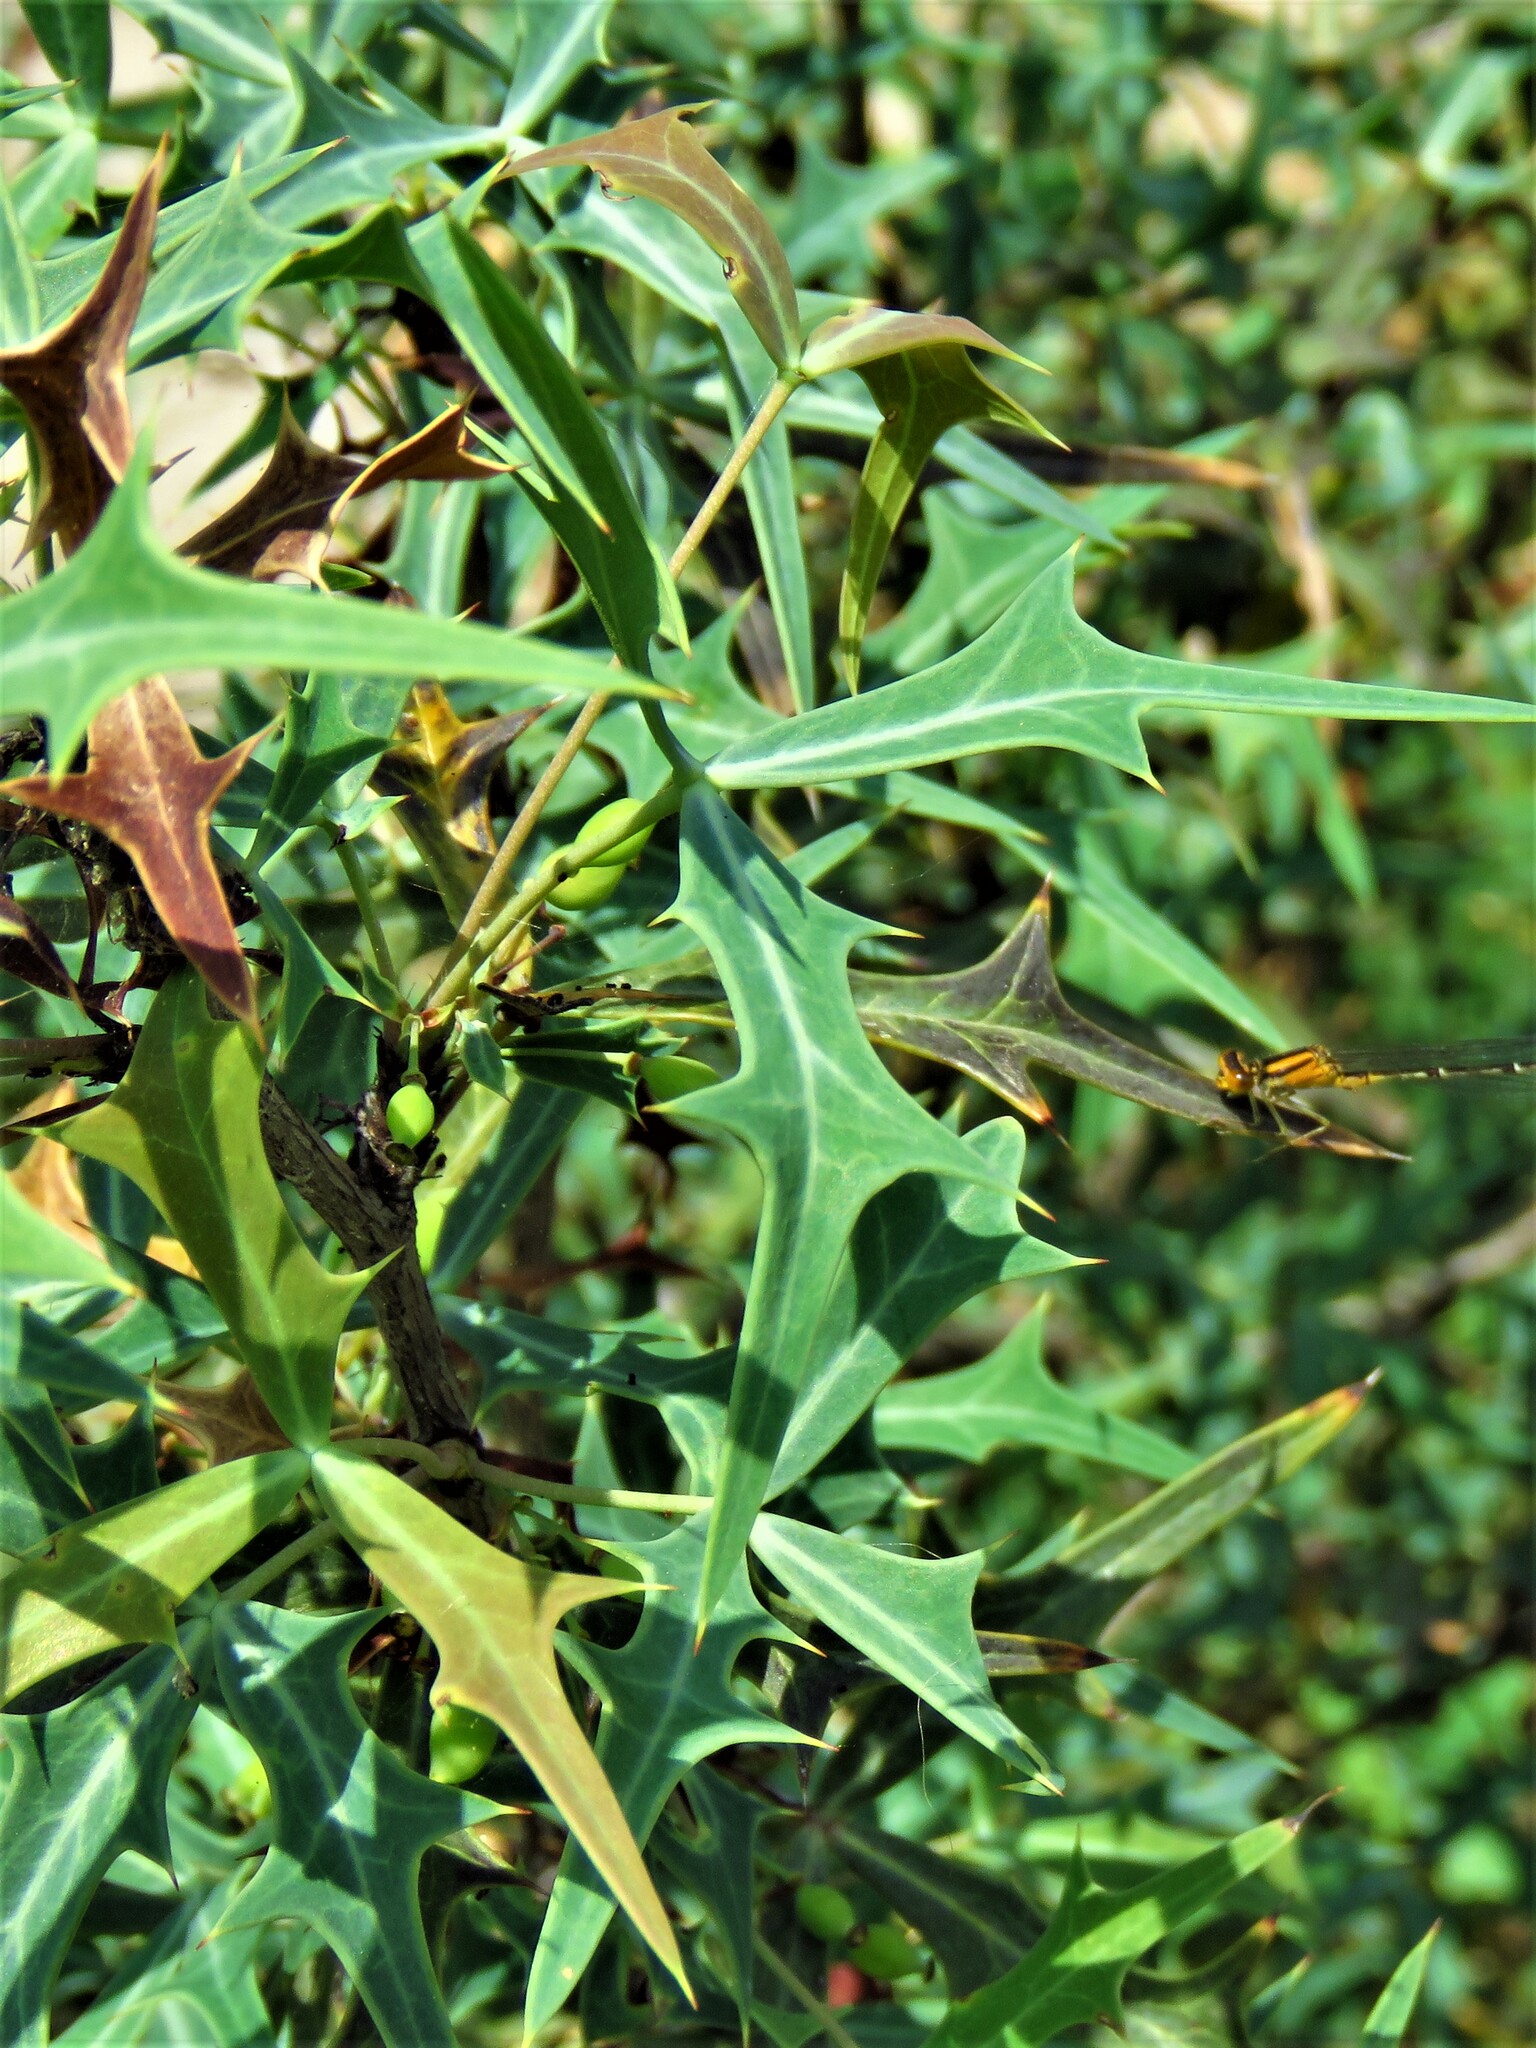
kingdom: Plantae
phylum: Tracheophyta
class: Magnoliopsida
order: Ranunculales
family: Berberidaceae
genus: Alloberberis
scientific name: Alloberberis trifoliolata
